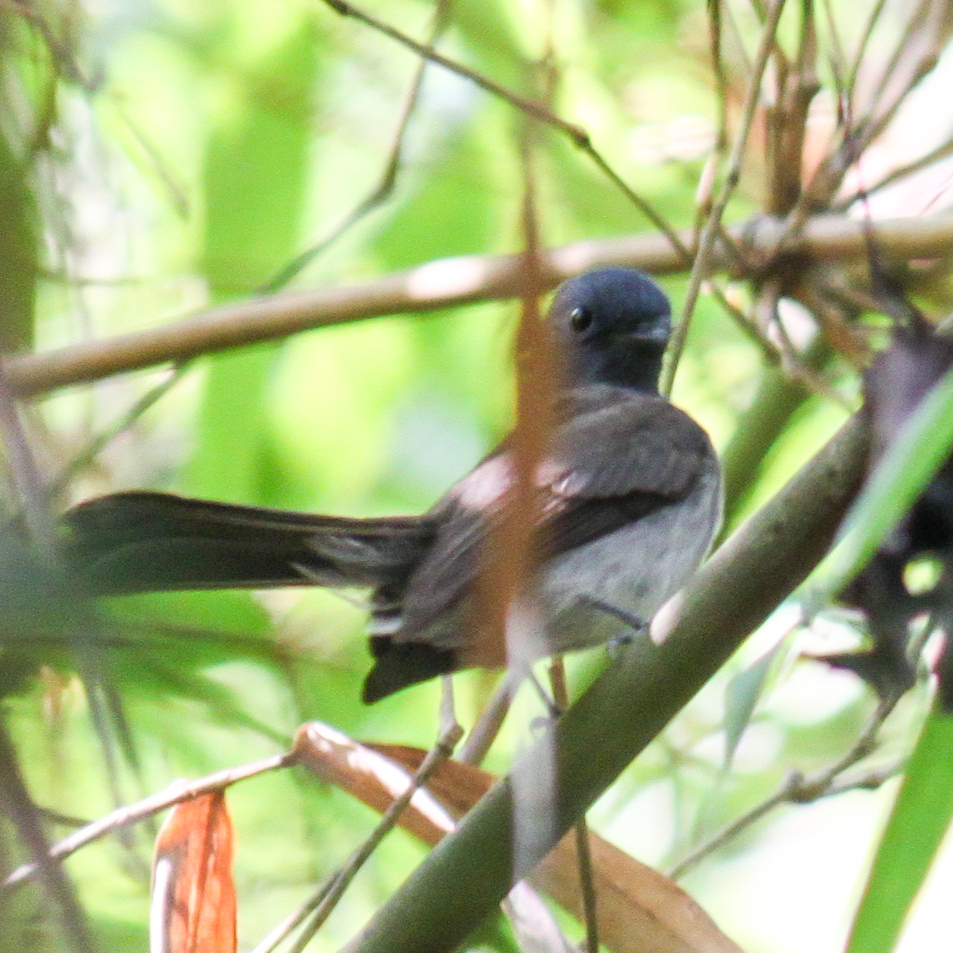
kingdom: Animalia
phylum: Chordata
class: Aves
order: Passeriformes
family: Monarchidae
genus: Hypothymis
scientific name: Hypothymis azurea
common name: Black-naped monarch
